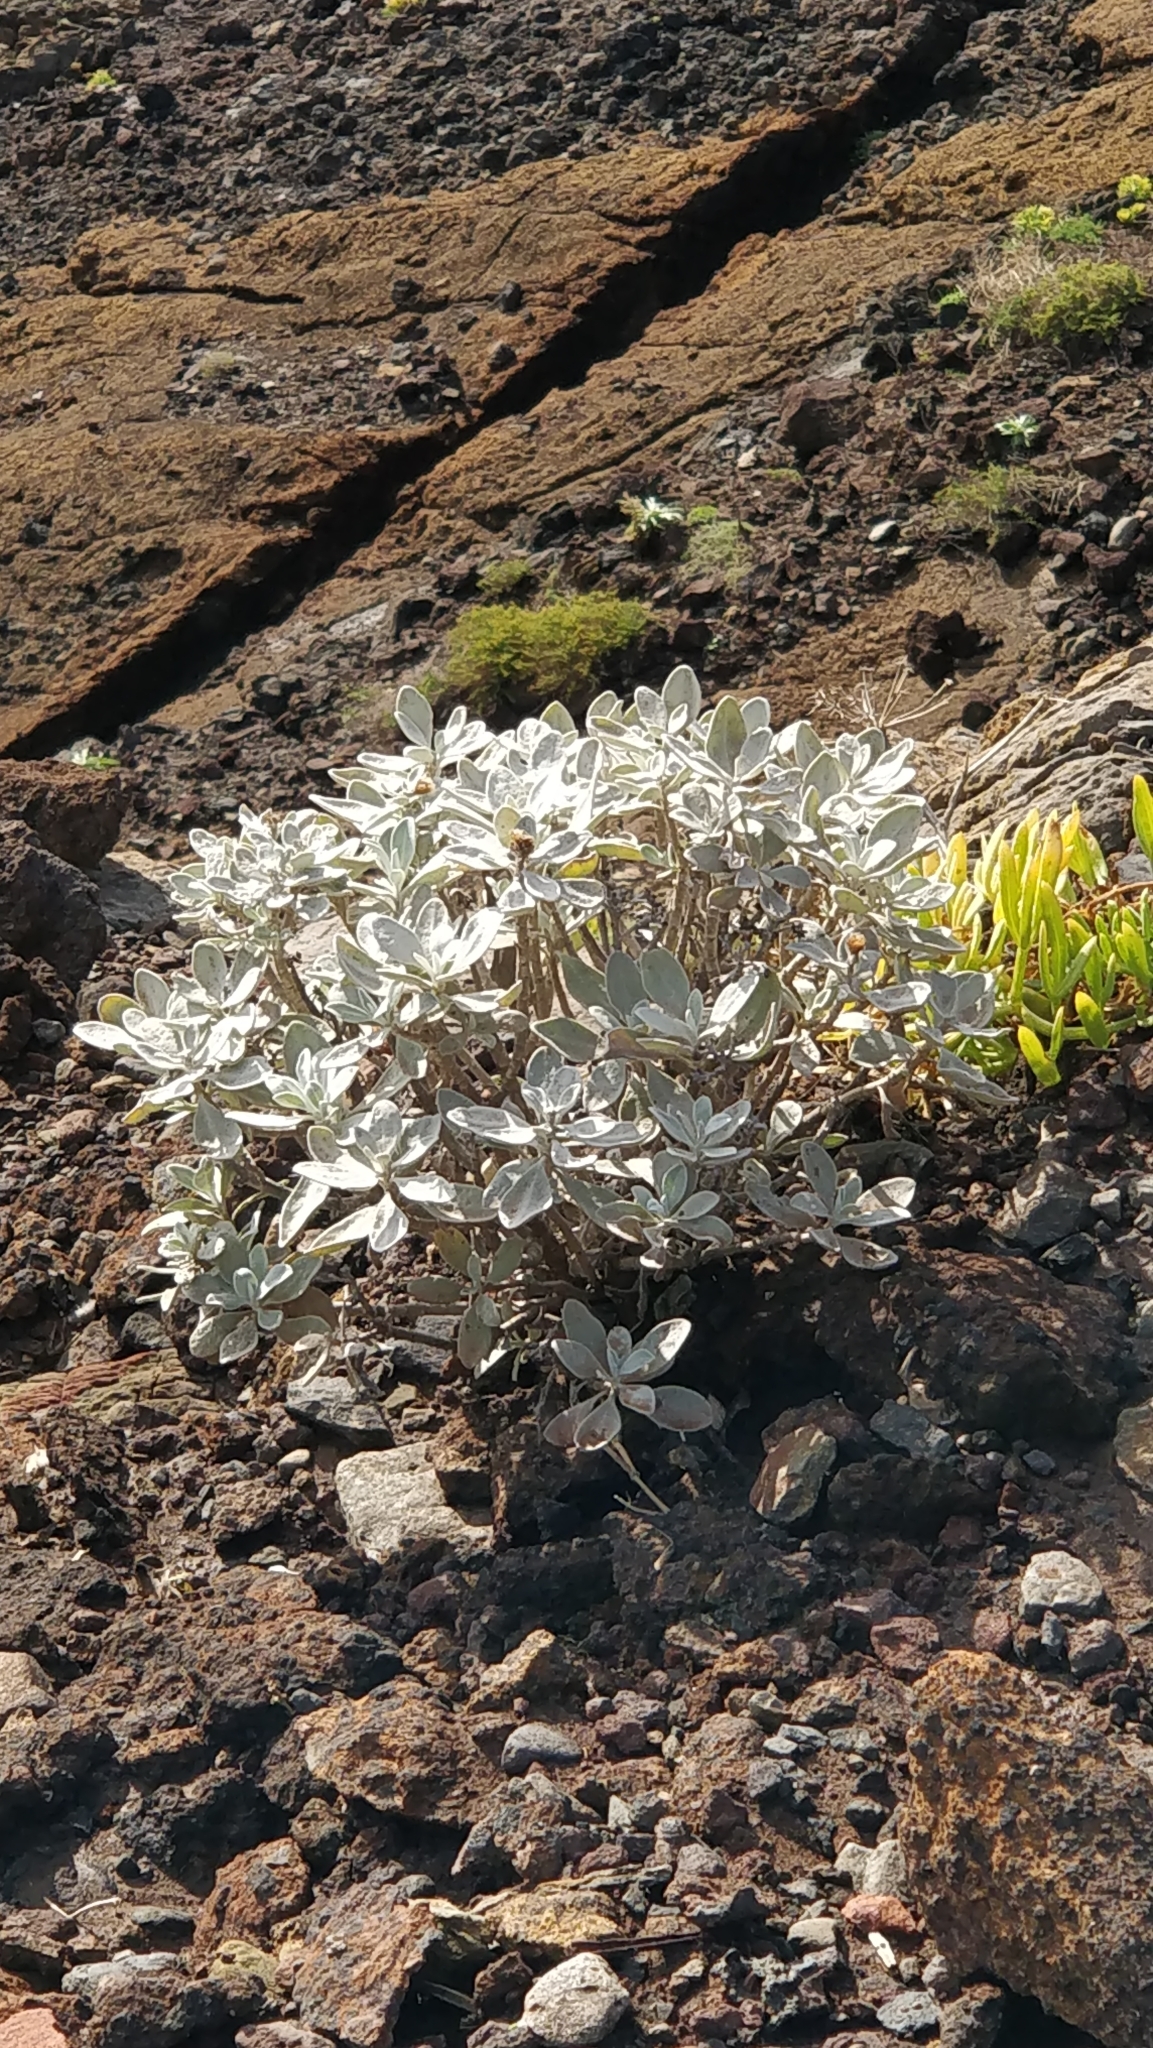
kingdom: Plantae
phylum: Tracheophyta
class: Magnoliopsida
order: Asterales
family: Asteraceae
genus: Helichrysum
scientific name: Helichrysum obconicum
